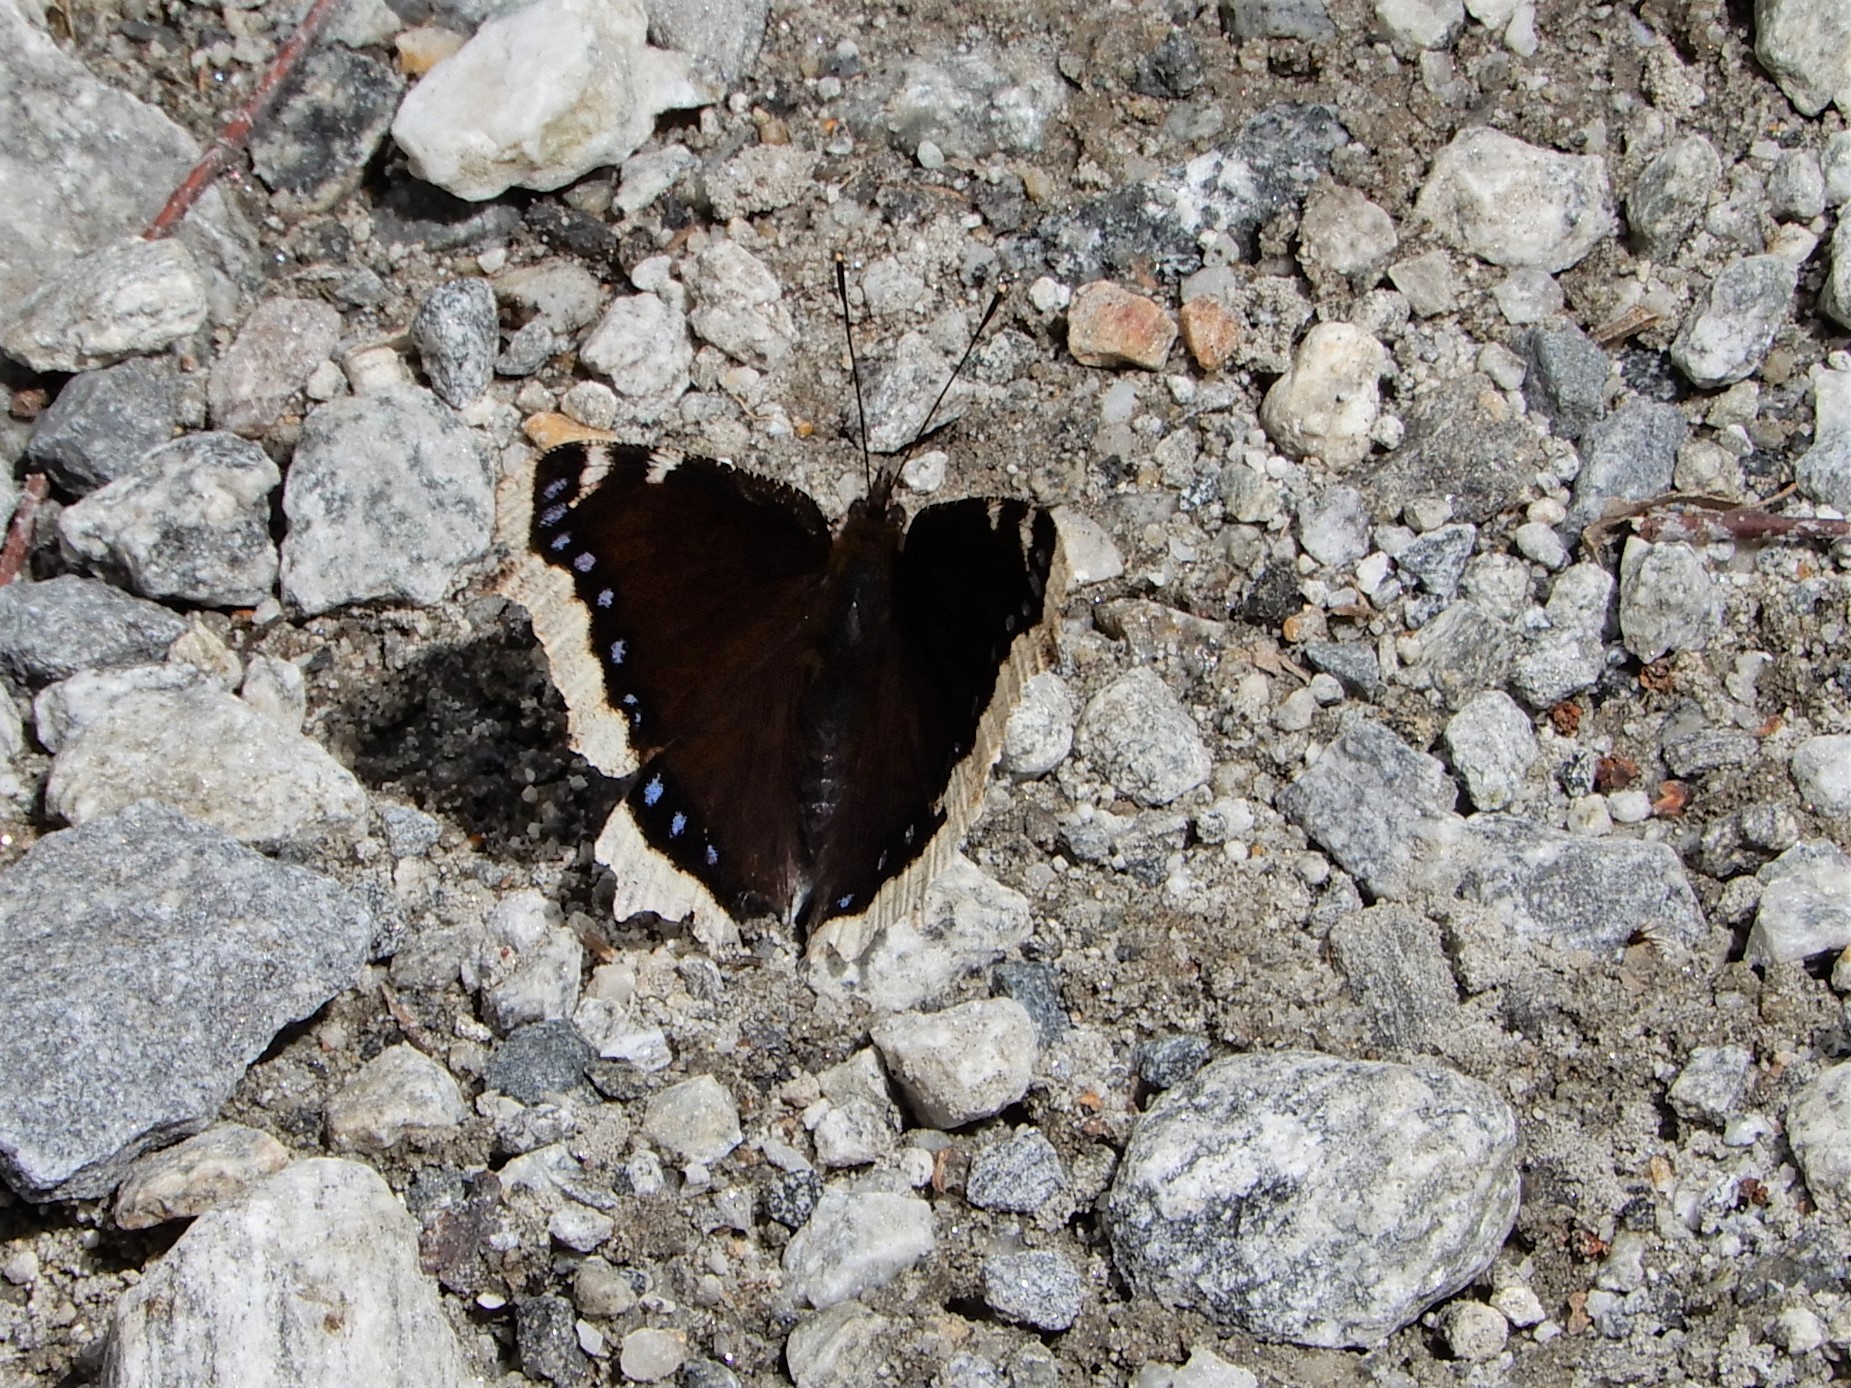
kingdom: Animalia
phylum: Arthropoda
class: Insecta
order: Lepidoptera
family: Nymphalidae
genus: Nymphalis
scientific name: Nymphalis antiopa
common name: Camberwell beauty
